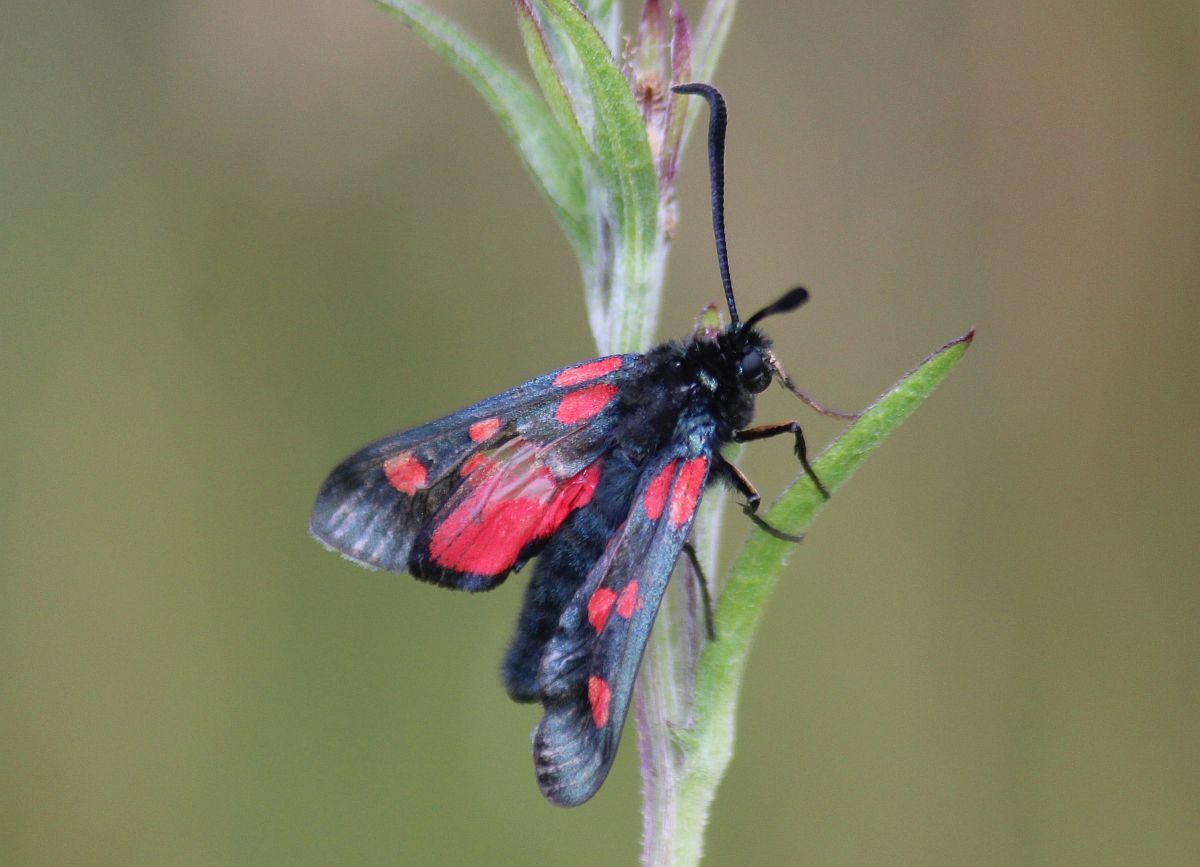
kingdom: Animalia
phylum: Arthropoda
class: Insecta
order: Lepidoptera
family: Zygaenidae
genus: Zygaena
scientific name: Zygaena lonicerae
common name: Narrow-bordered five-spot burnet
